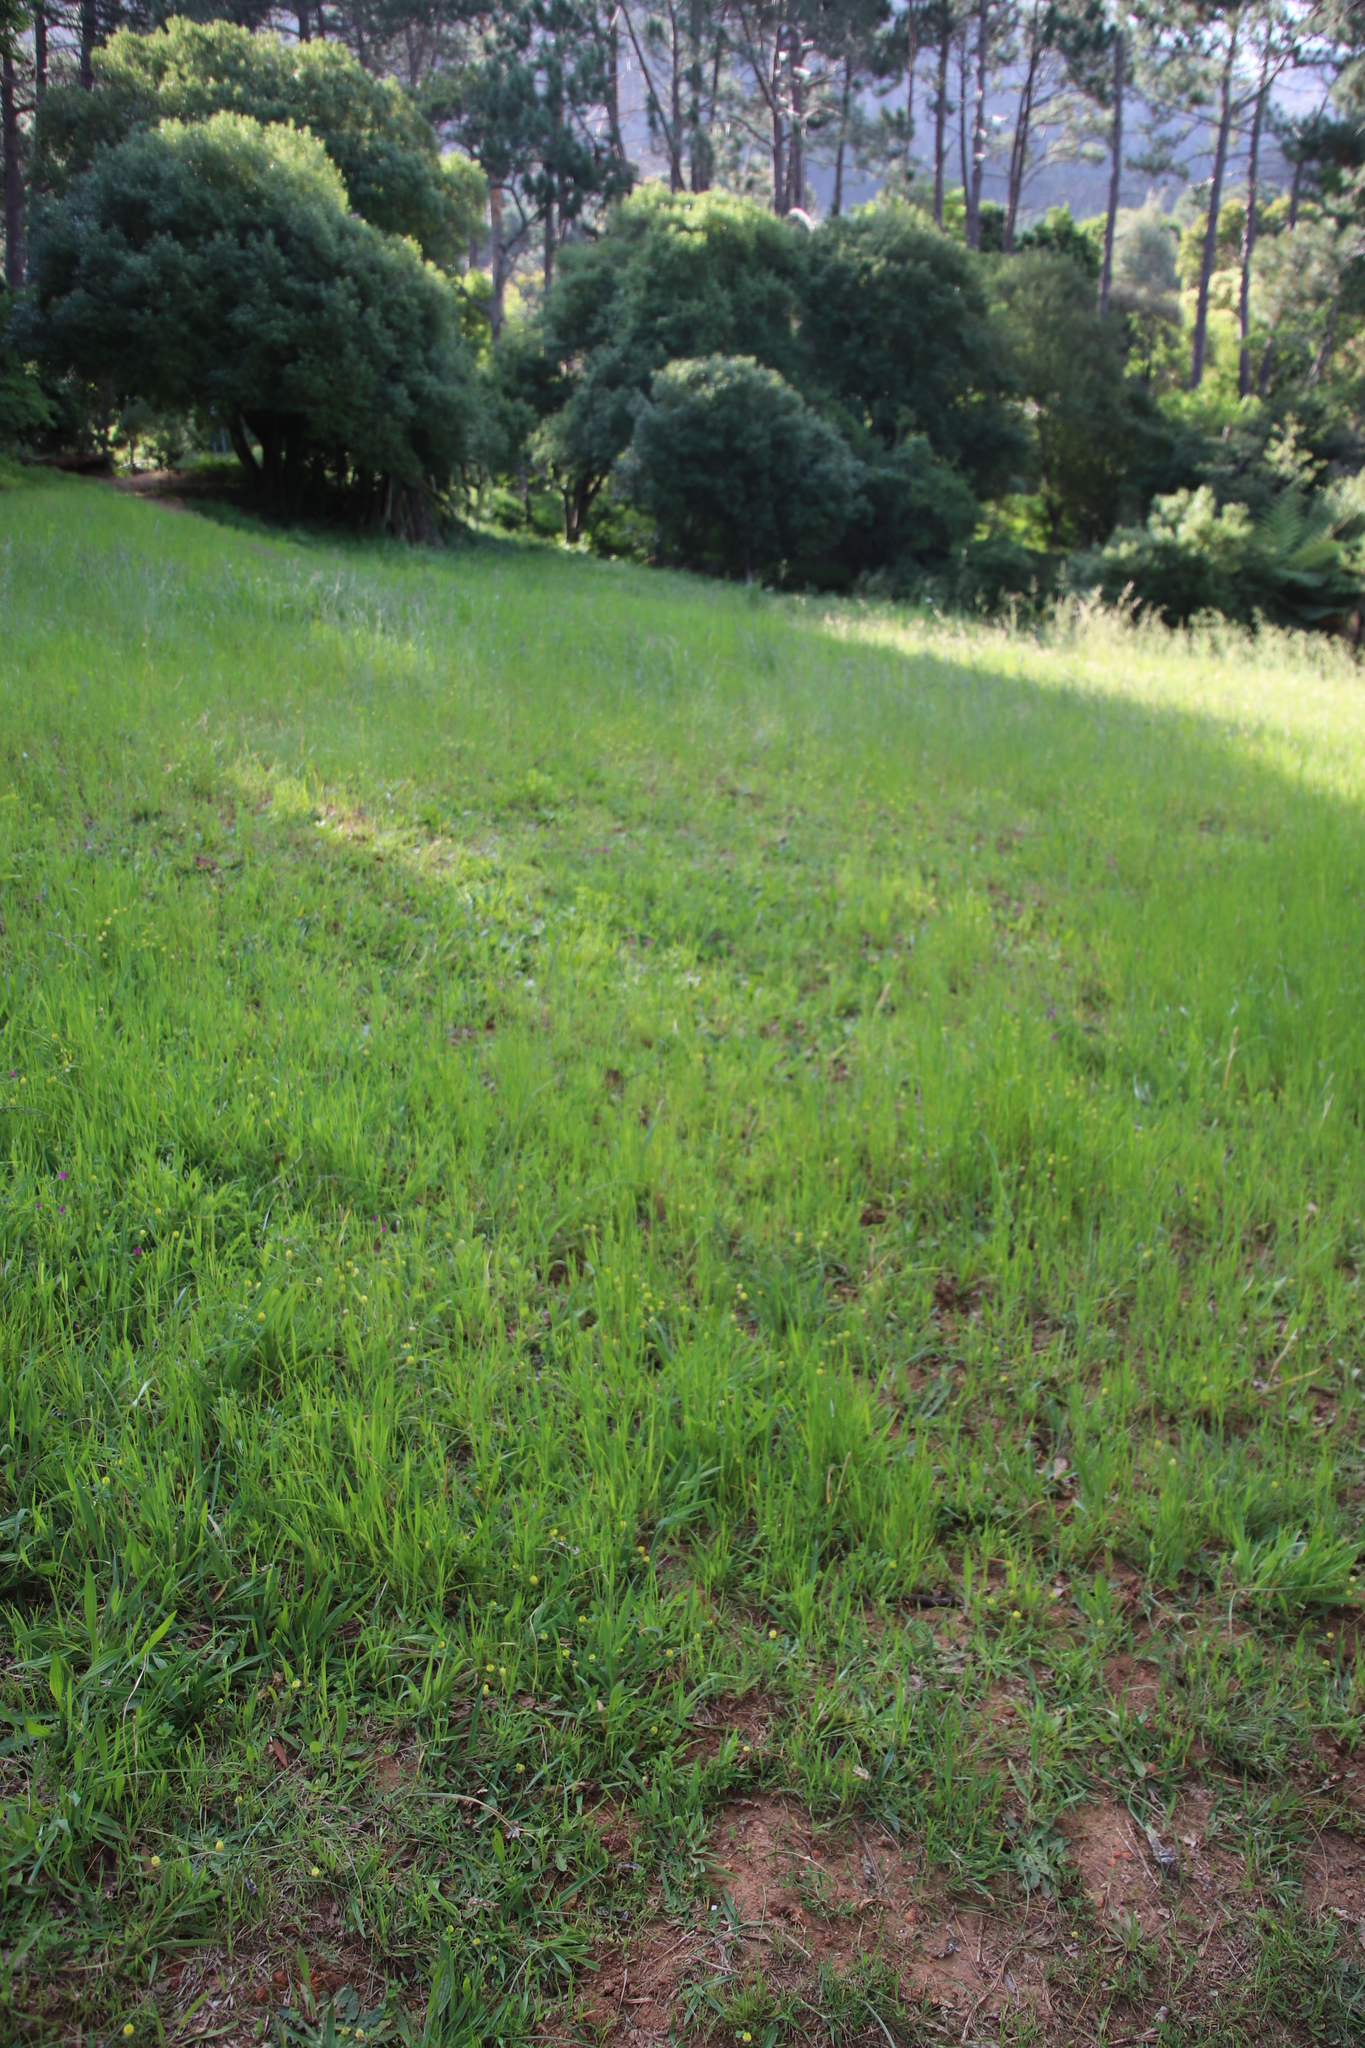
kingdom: Plantae
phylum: Tracheophyta
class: Magnoliopsida
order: Fabales
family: Fabaceae
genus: Trifolium
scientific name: Trifolium campestre
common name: Field clover
